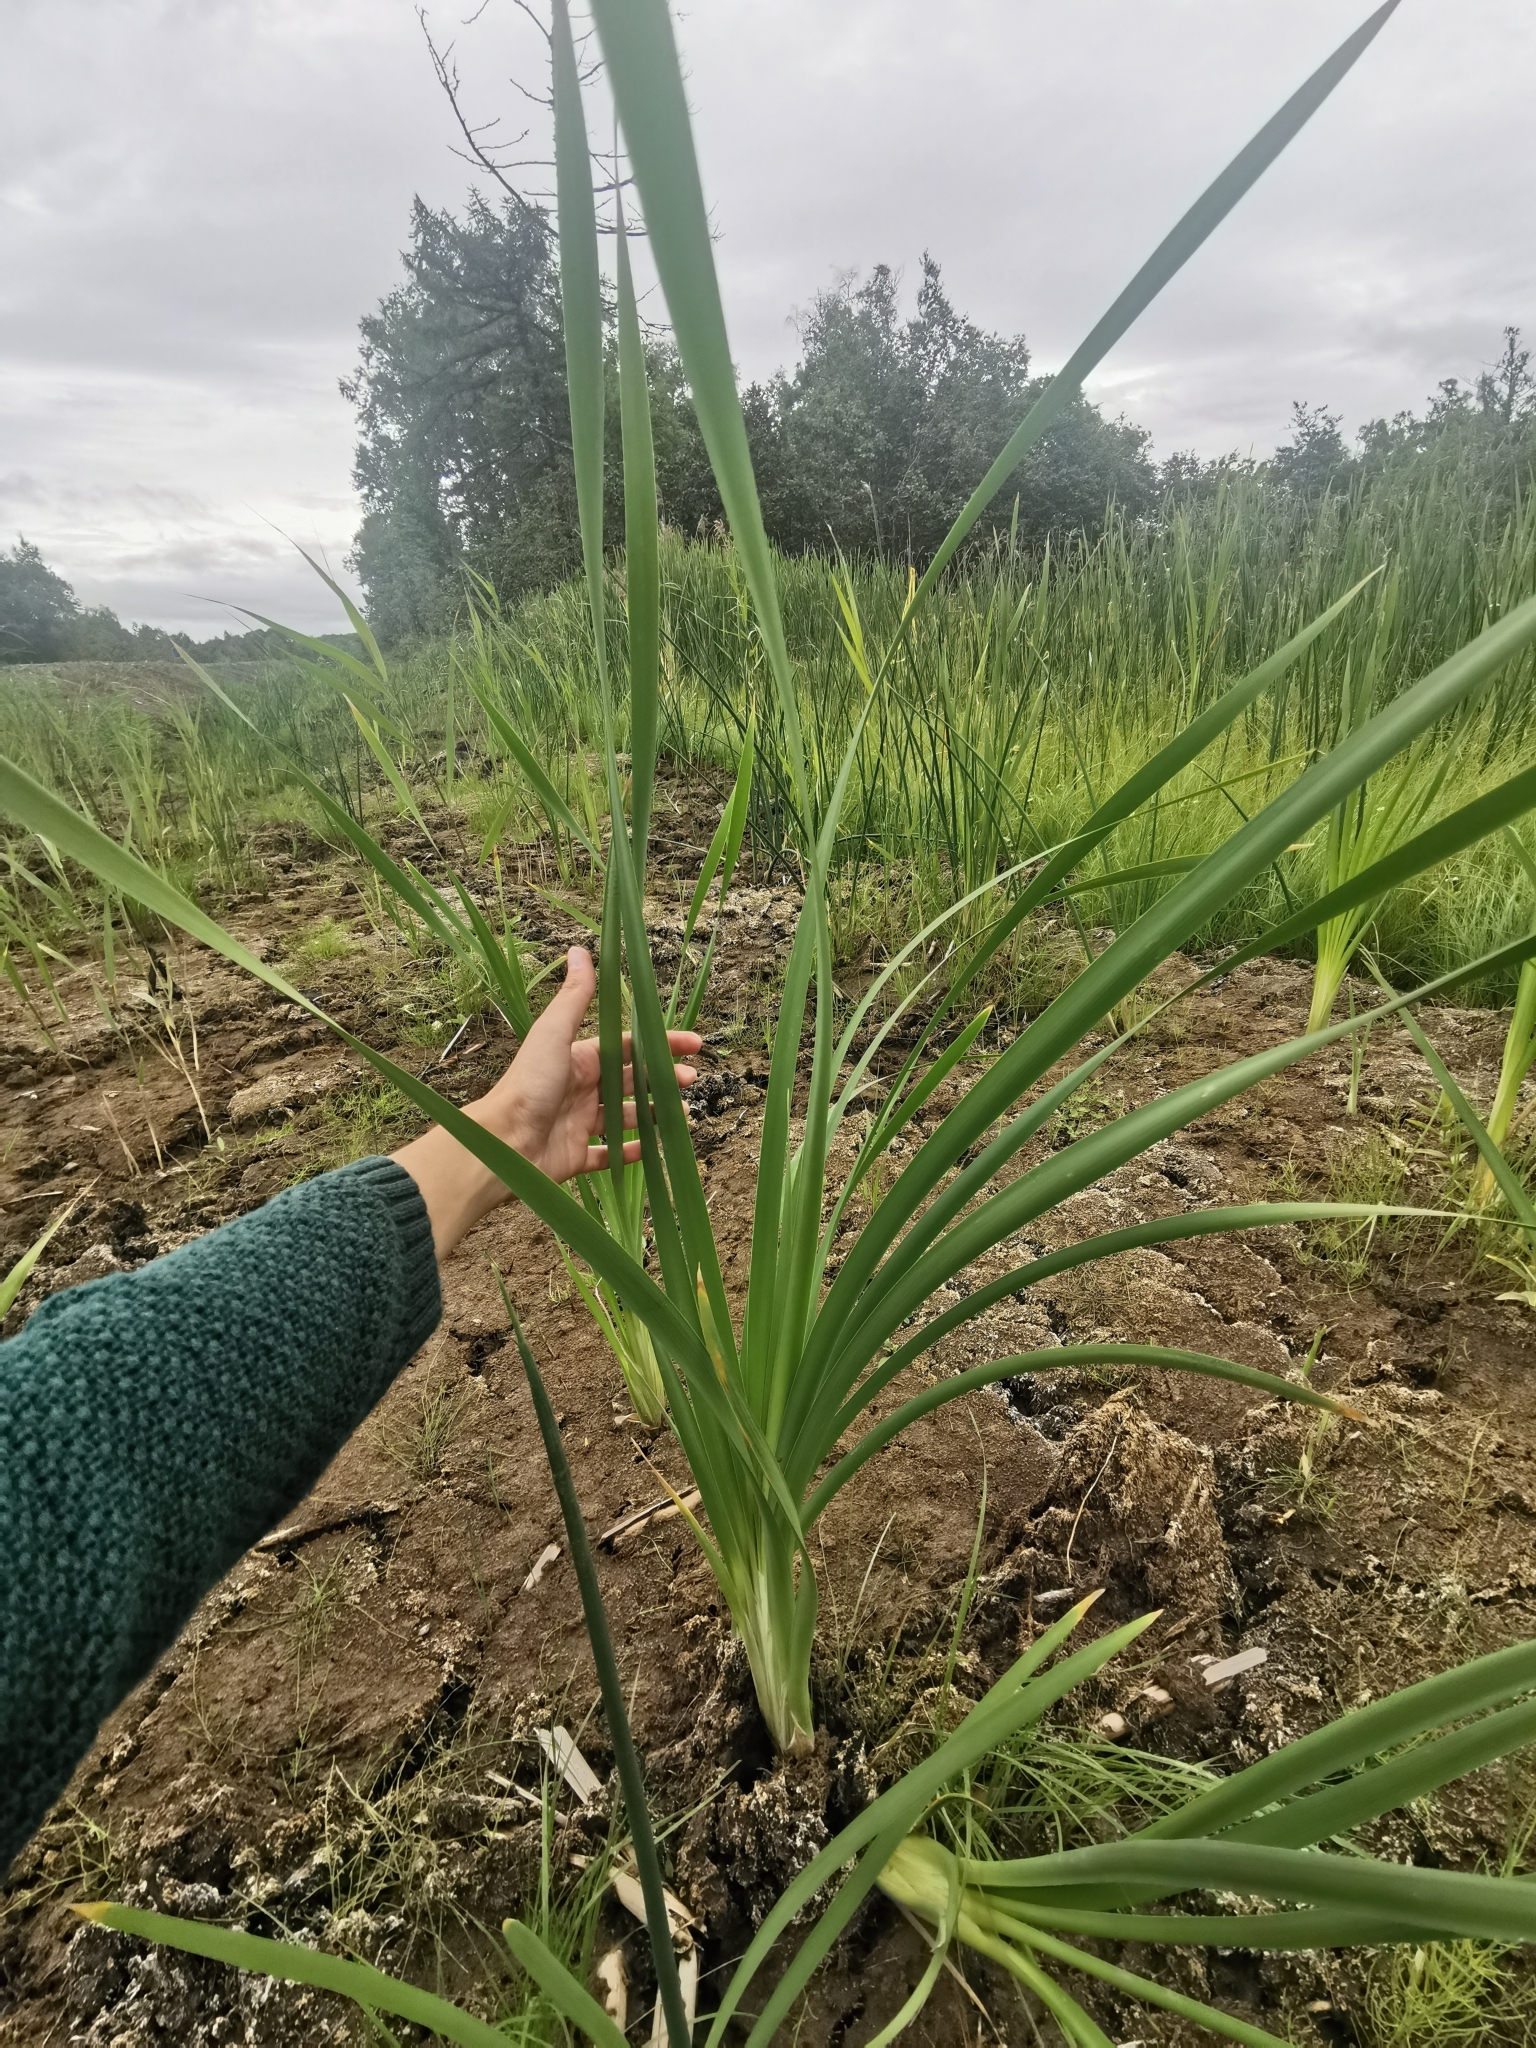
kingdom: Plantae
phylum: Tracheophyta
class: Liliopsida
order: Poales
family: Typhaceae
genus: Typha
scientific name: Typha latifolia
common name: Broadleaf cattail
